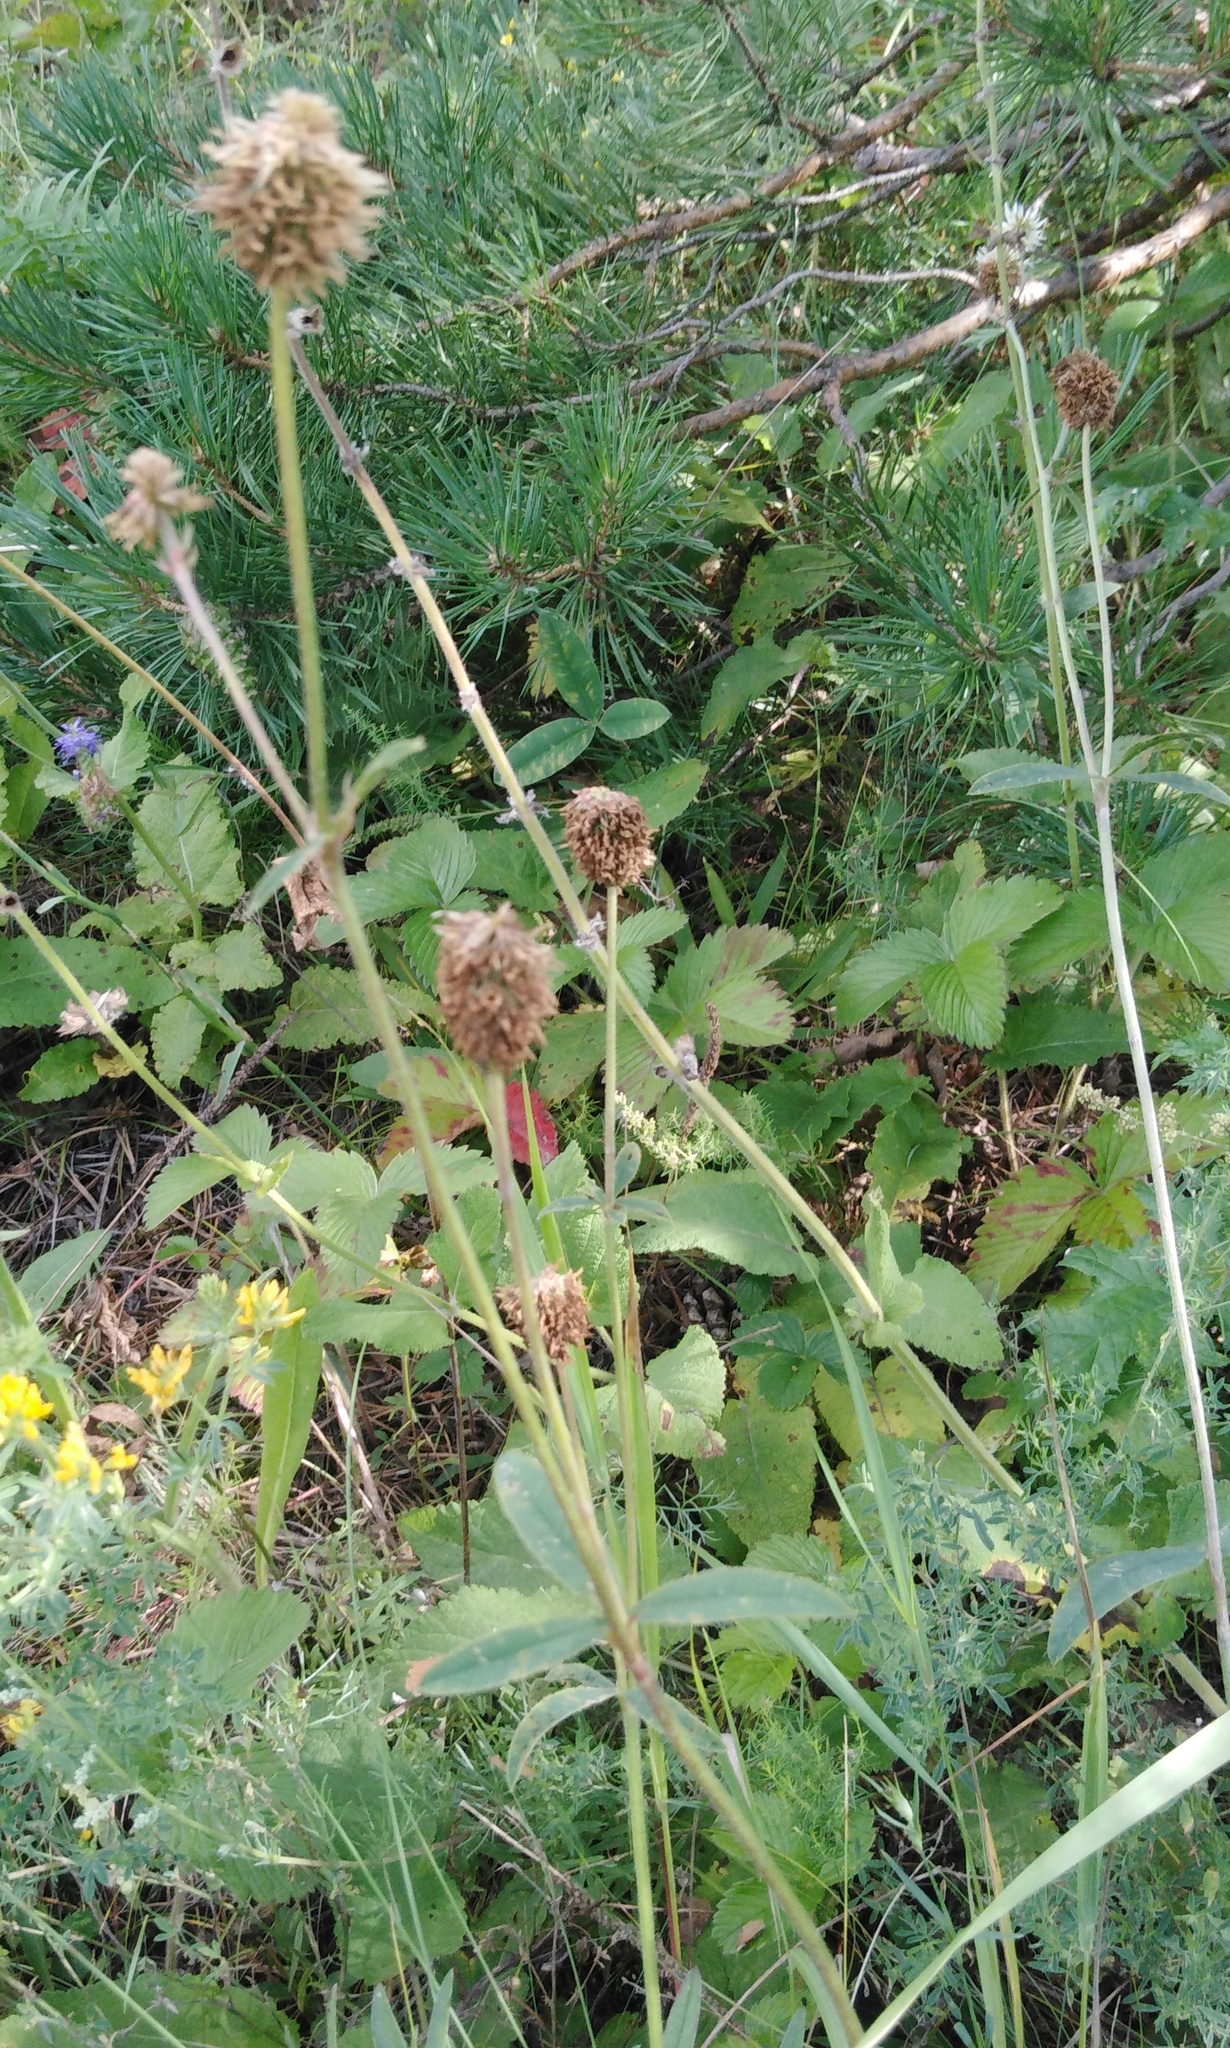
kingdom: Plantae
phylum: Tracheophyta
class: Magnoliopsida
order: Fabales
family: Fabaceae
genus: Trifolium
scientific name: Trifolium montanum
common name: Mountain clover
